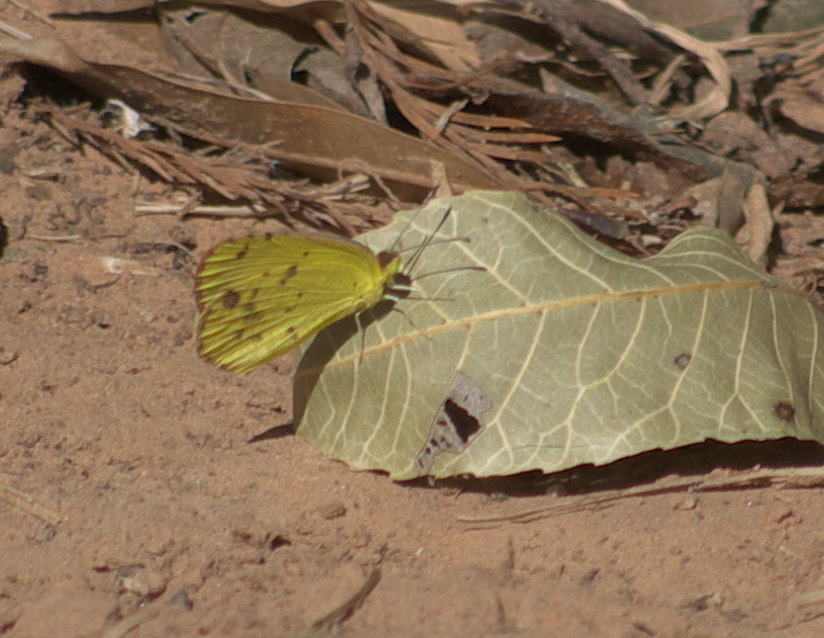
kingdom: Animalia
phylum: Arthropoda
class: Insecta
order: Lepidoptera
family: Pieridae
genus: Pyrisitia
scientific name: Pyrisitia lisa
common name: Little yellow
